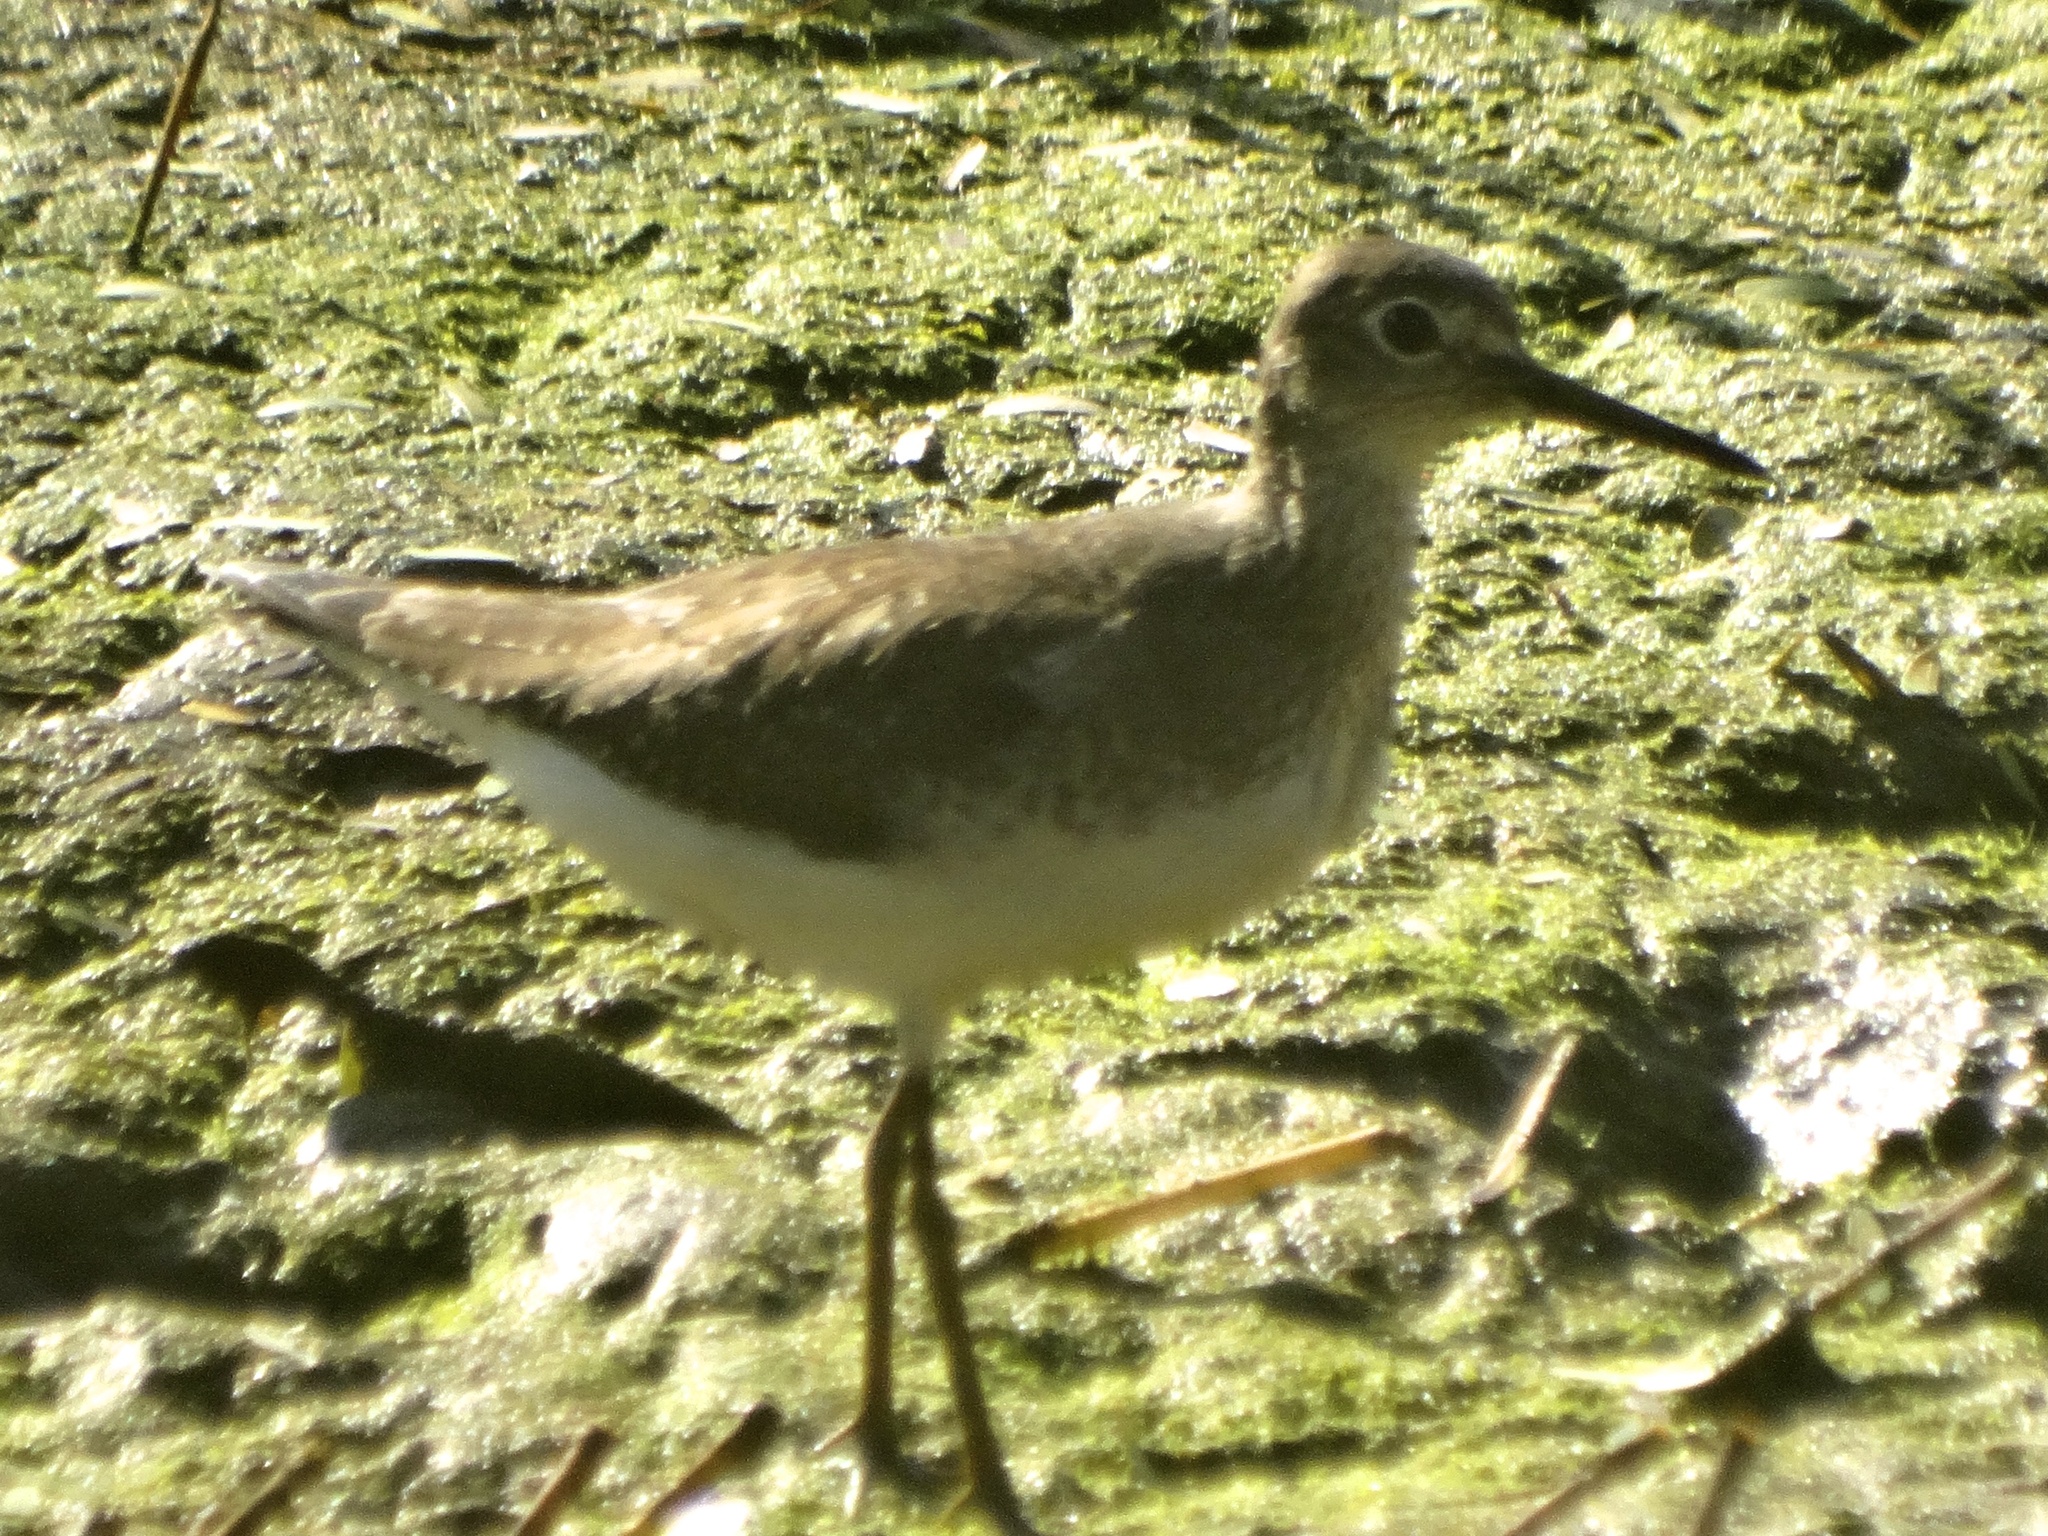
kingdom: Animalia
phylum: Chordata
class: Aves
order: Charadriiformes
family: Scolopacidae
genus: Tringa
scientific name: Tringa solitaria
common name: Solitary sandpiper
